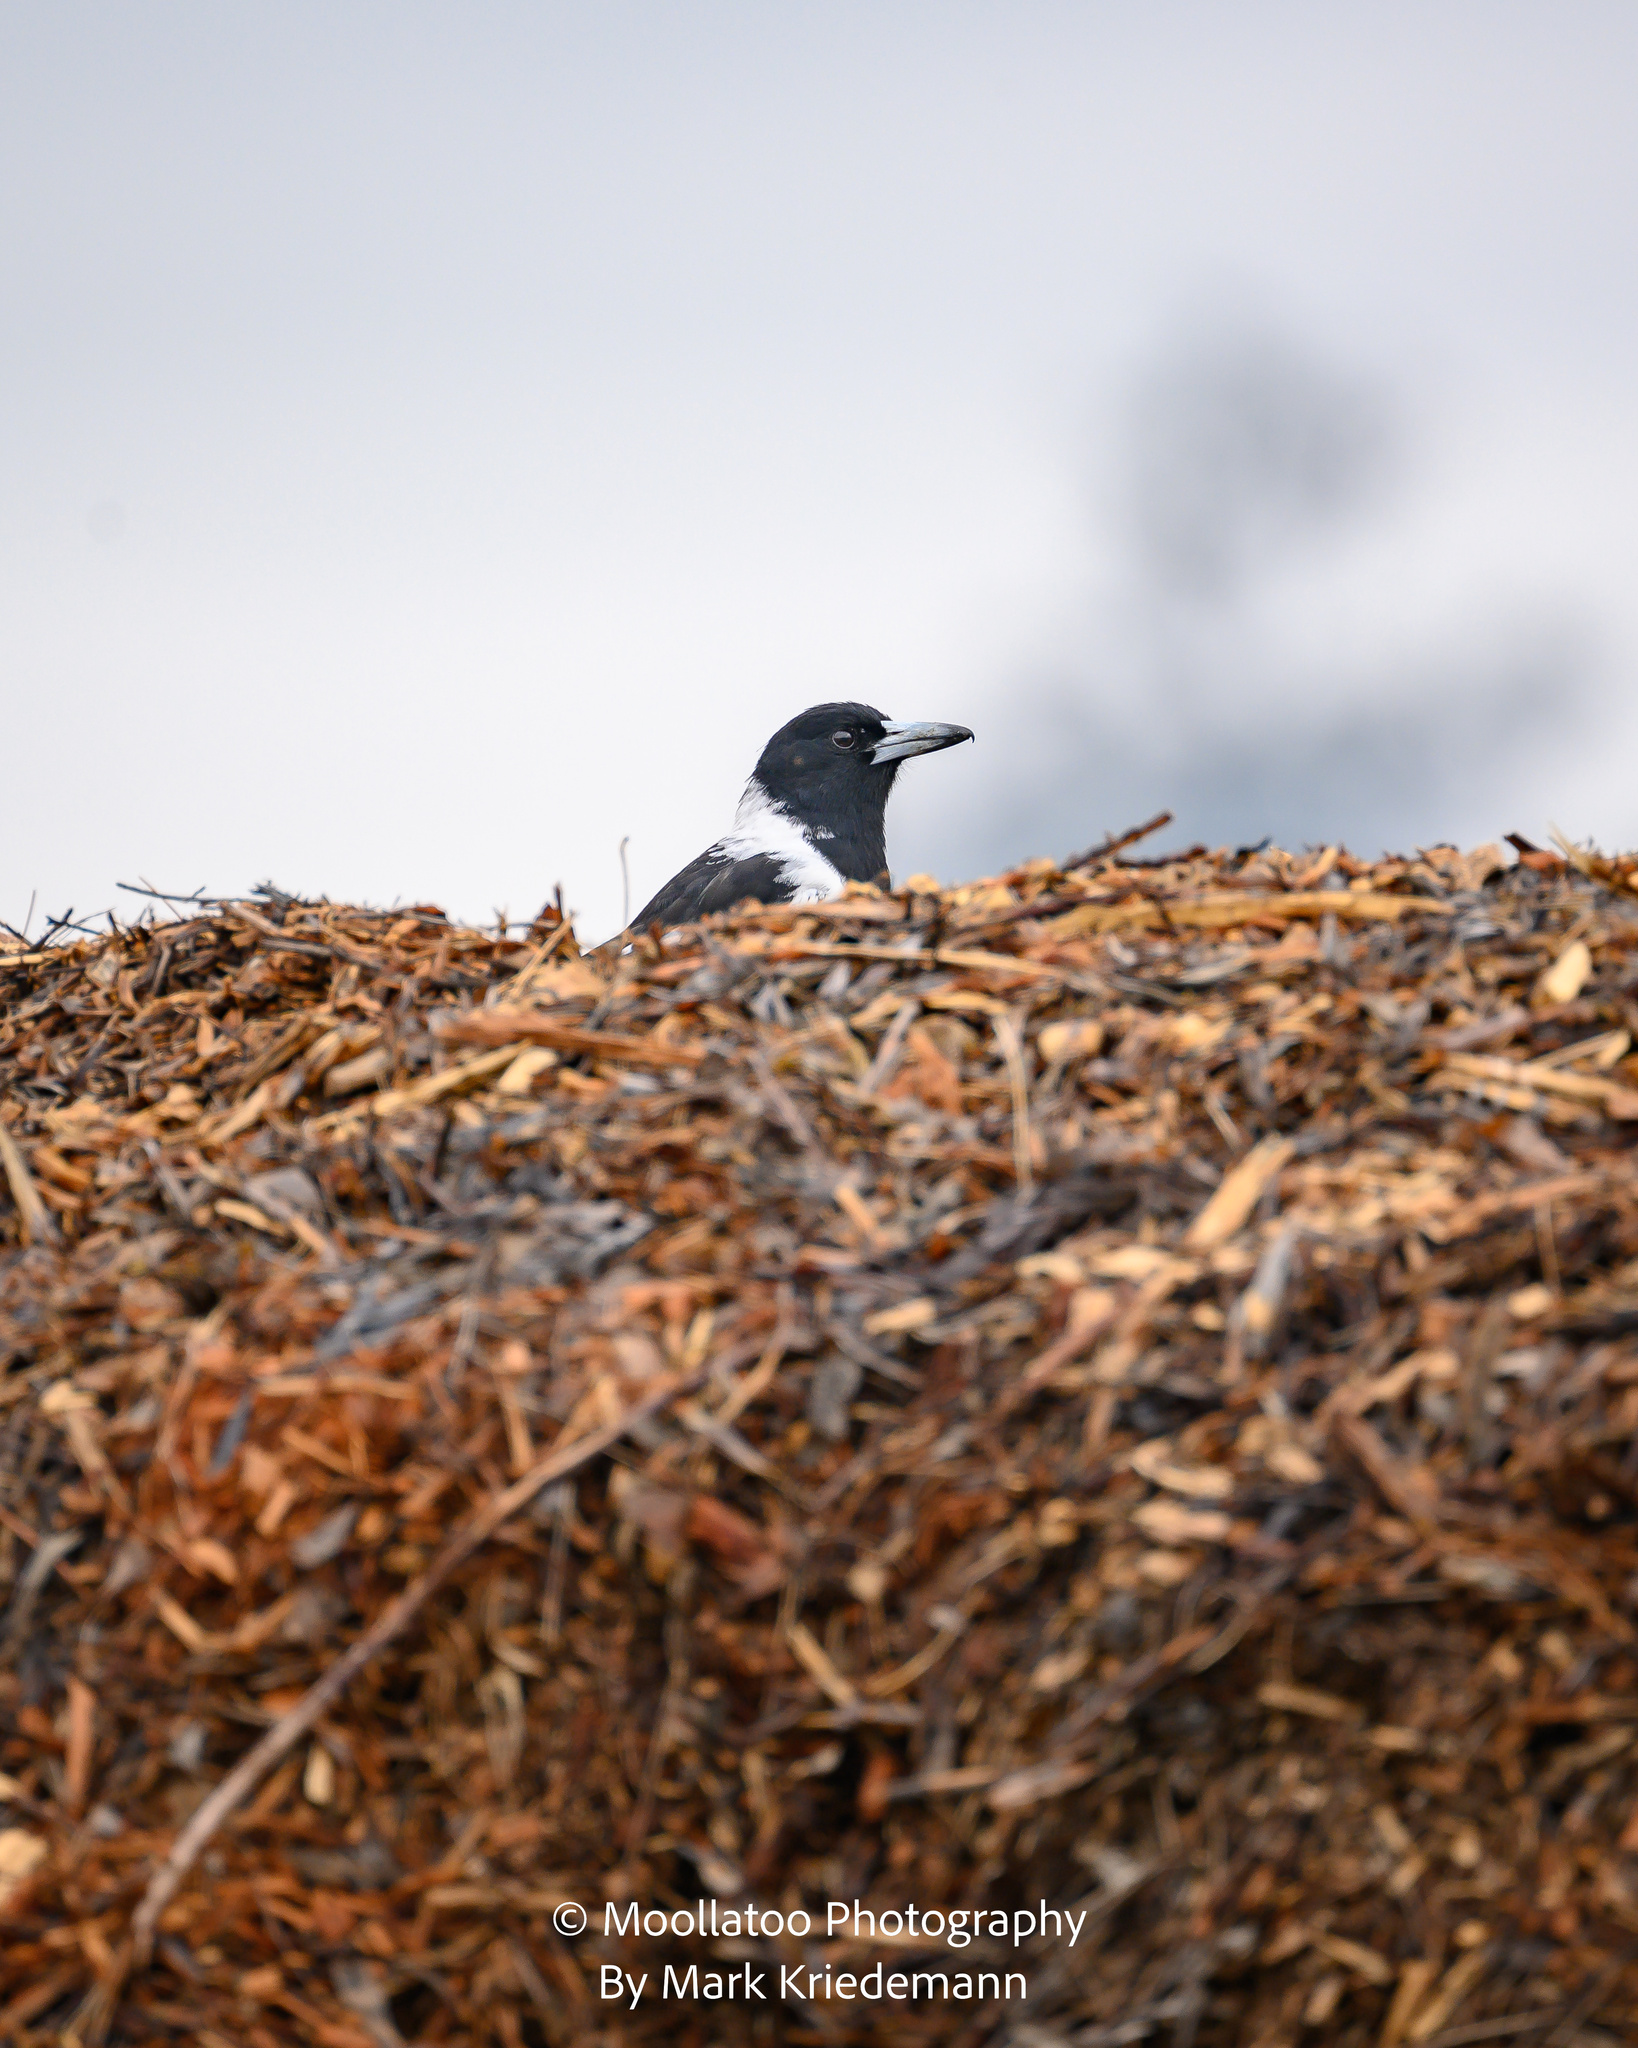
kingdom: Animalia
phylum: Chordata
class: Aves
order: Passeriformes
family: Cracticidae
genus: Cracticus
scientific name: Cracticus nigrogularis
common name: Pied butcherbird
